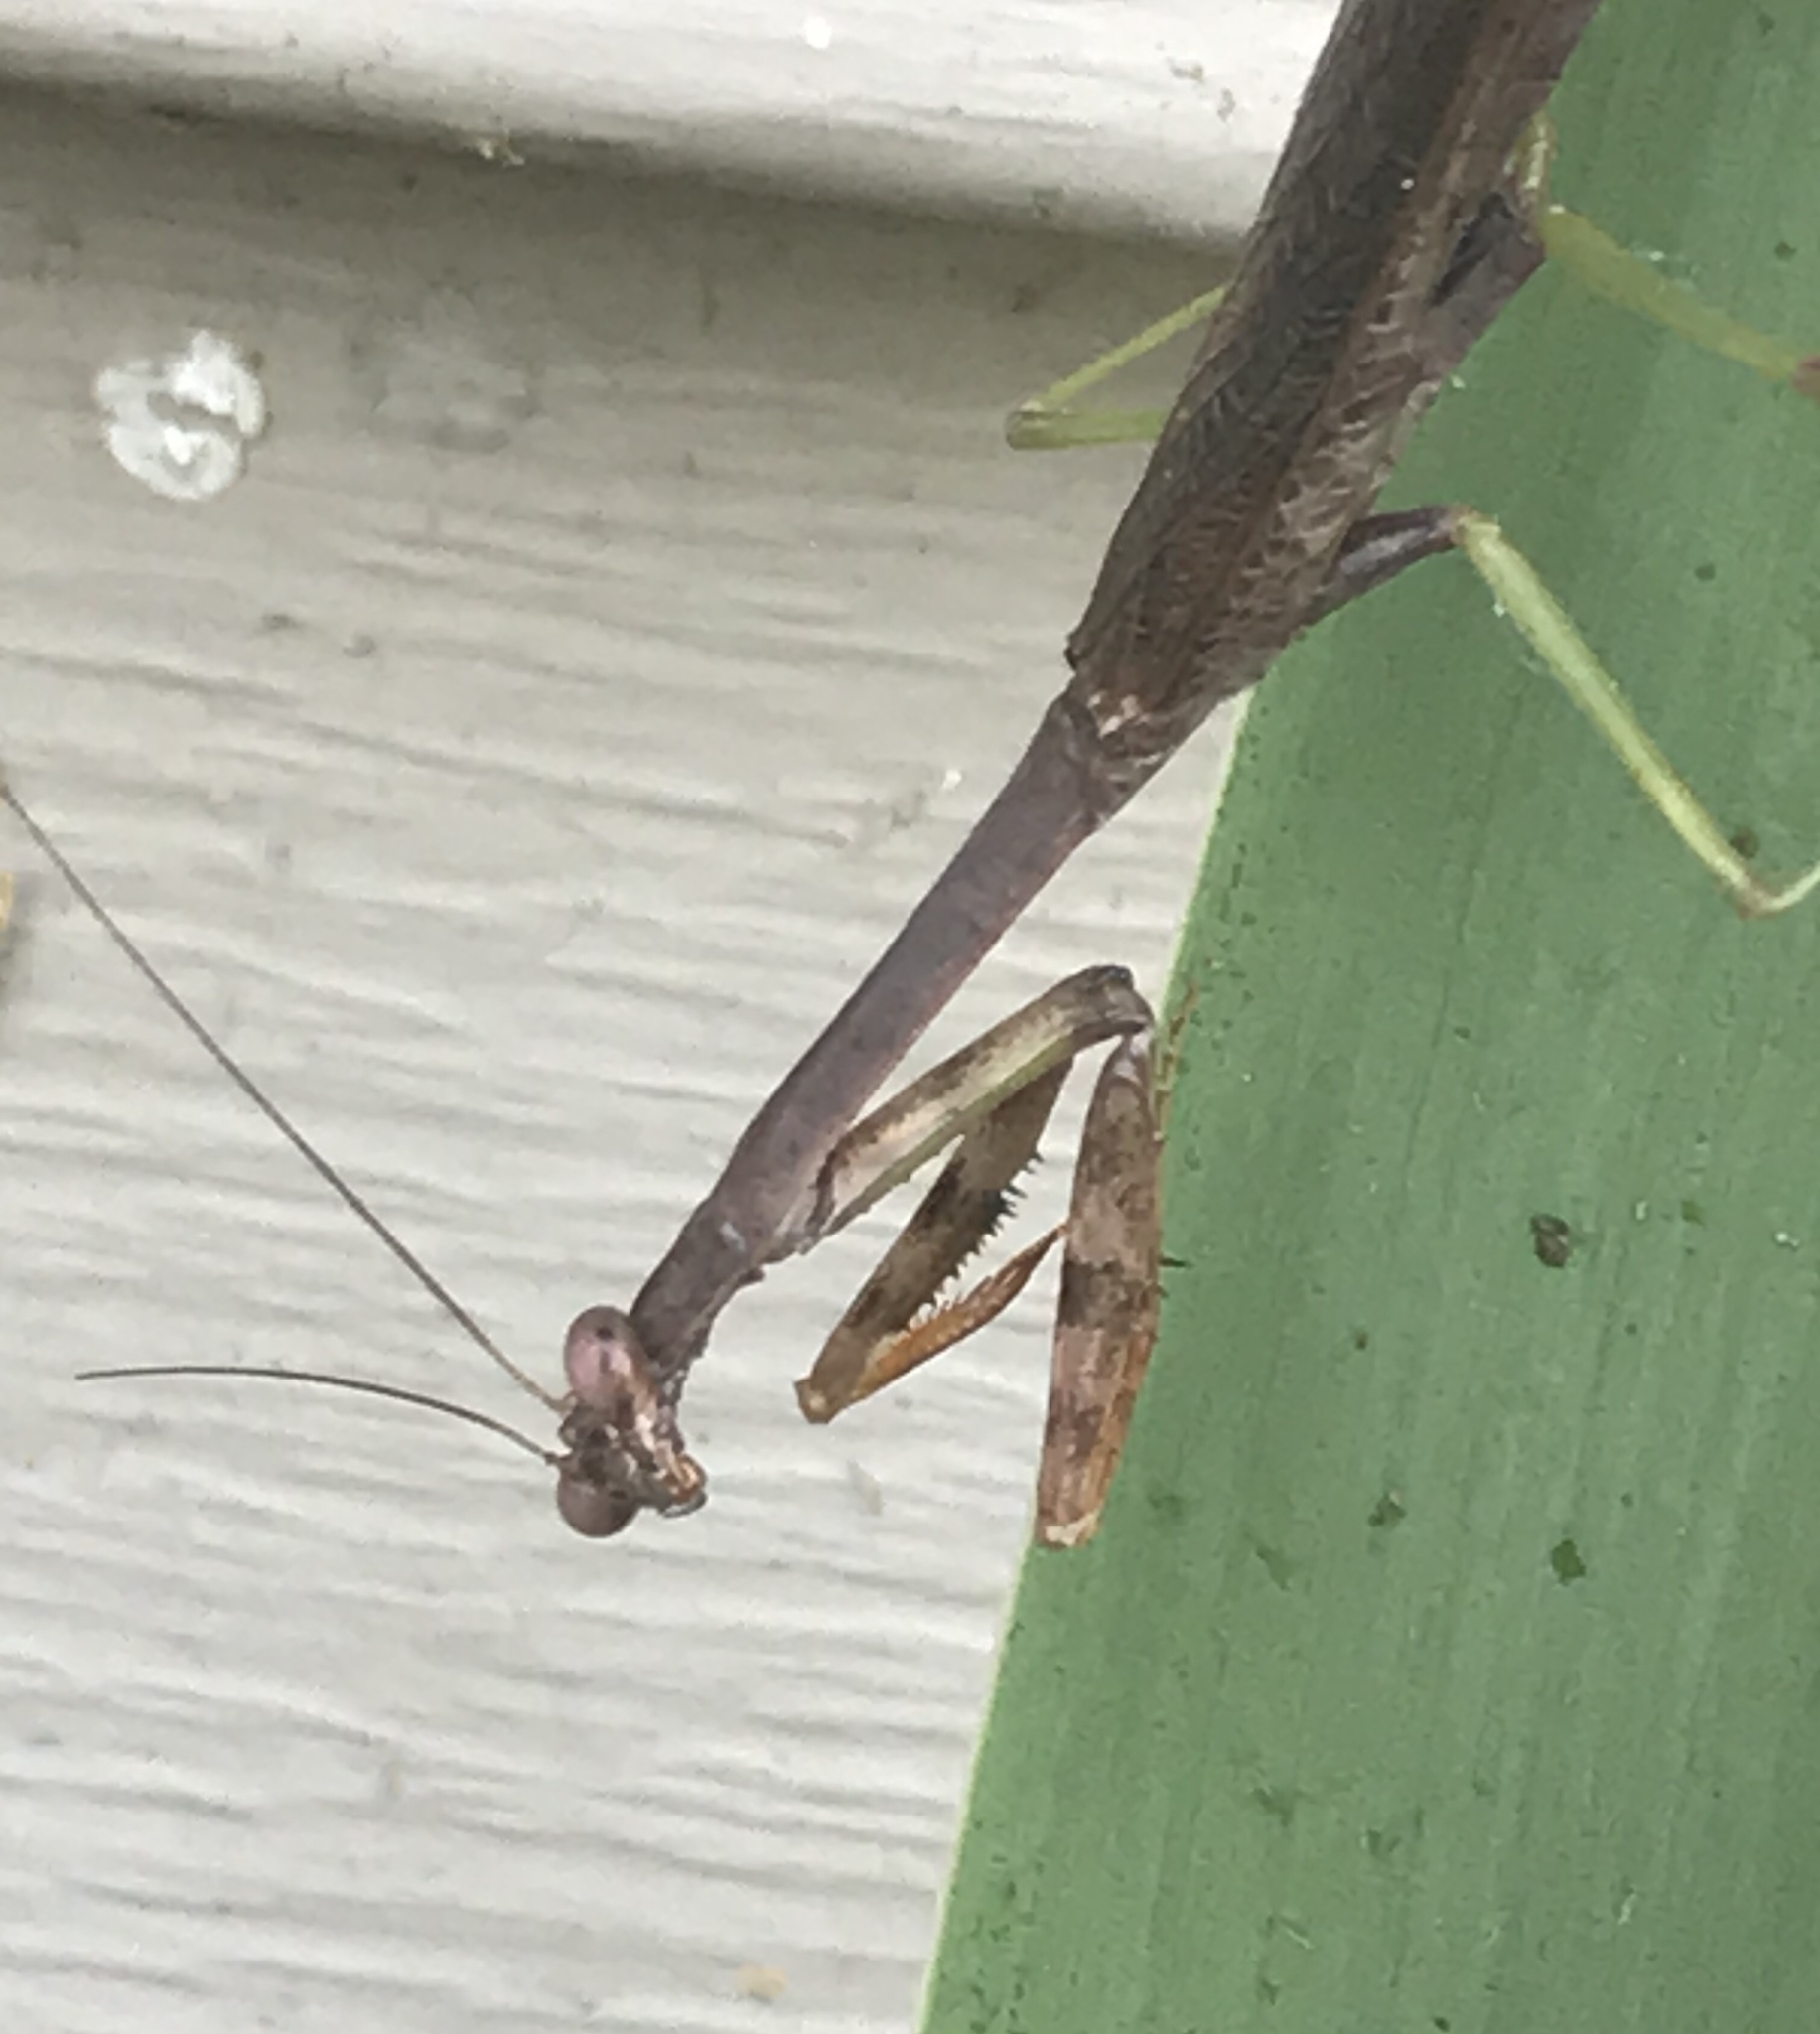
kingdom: Animalia
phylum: Arthropoda
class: Insecta
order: Mantodea
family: Mantidae
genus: Stagmomantis
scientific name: Stagmomantis carolina
